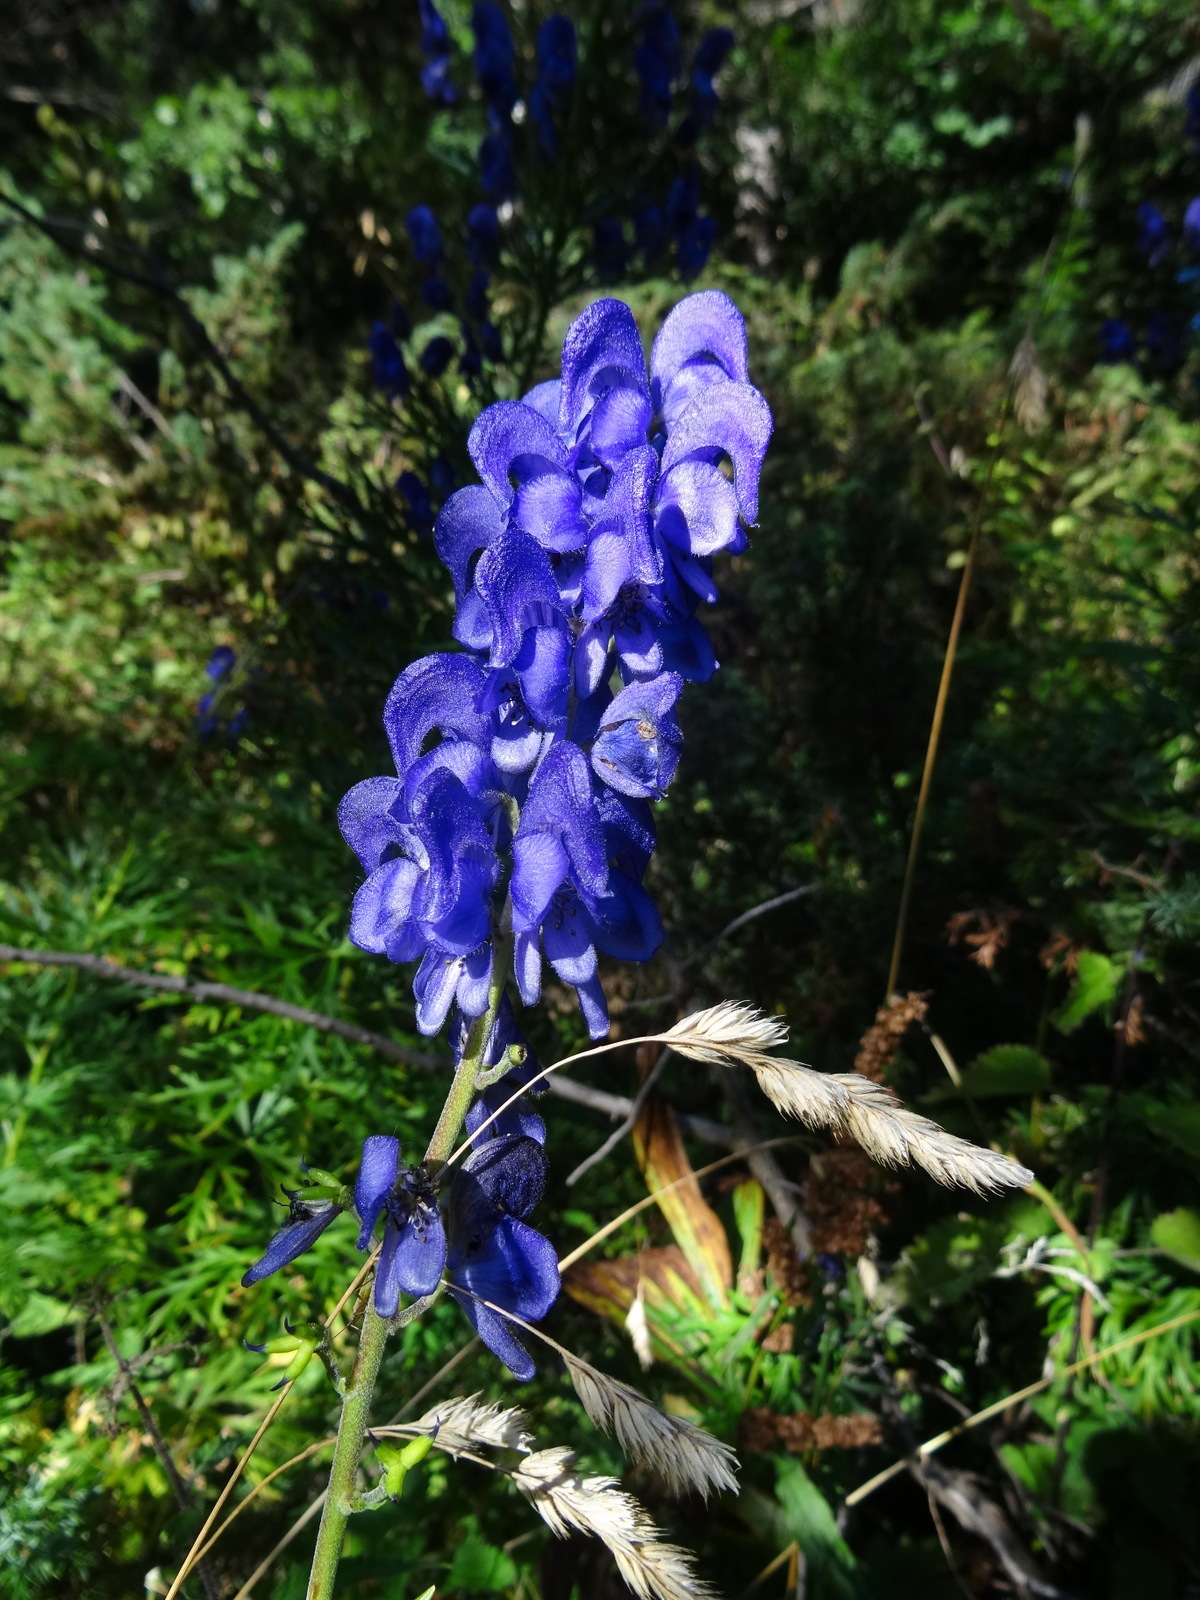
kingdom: Plantae
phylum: Tracheophyta
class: Magnoliopsida
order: Ranunculales
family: Ranunculaceae
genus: Aconitum
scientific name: Aconitum napellus
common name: Garden monkshood
